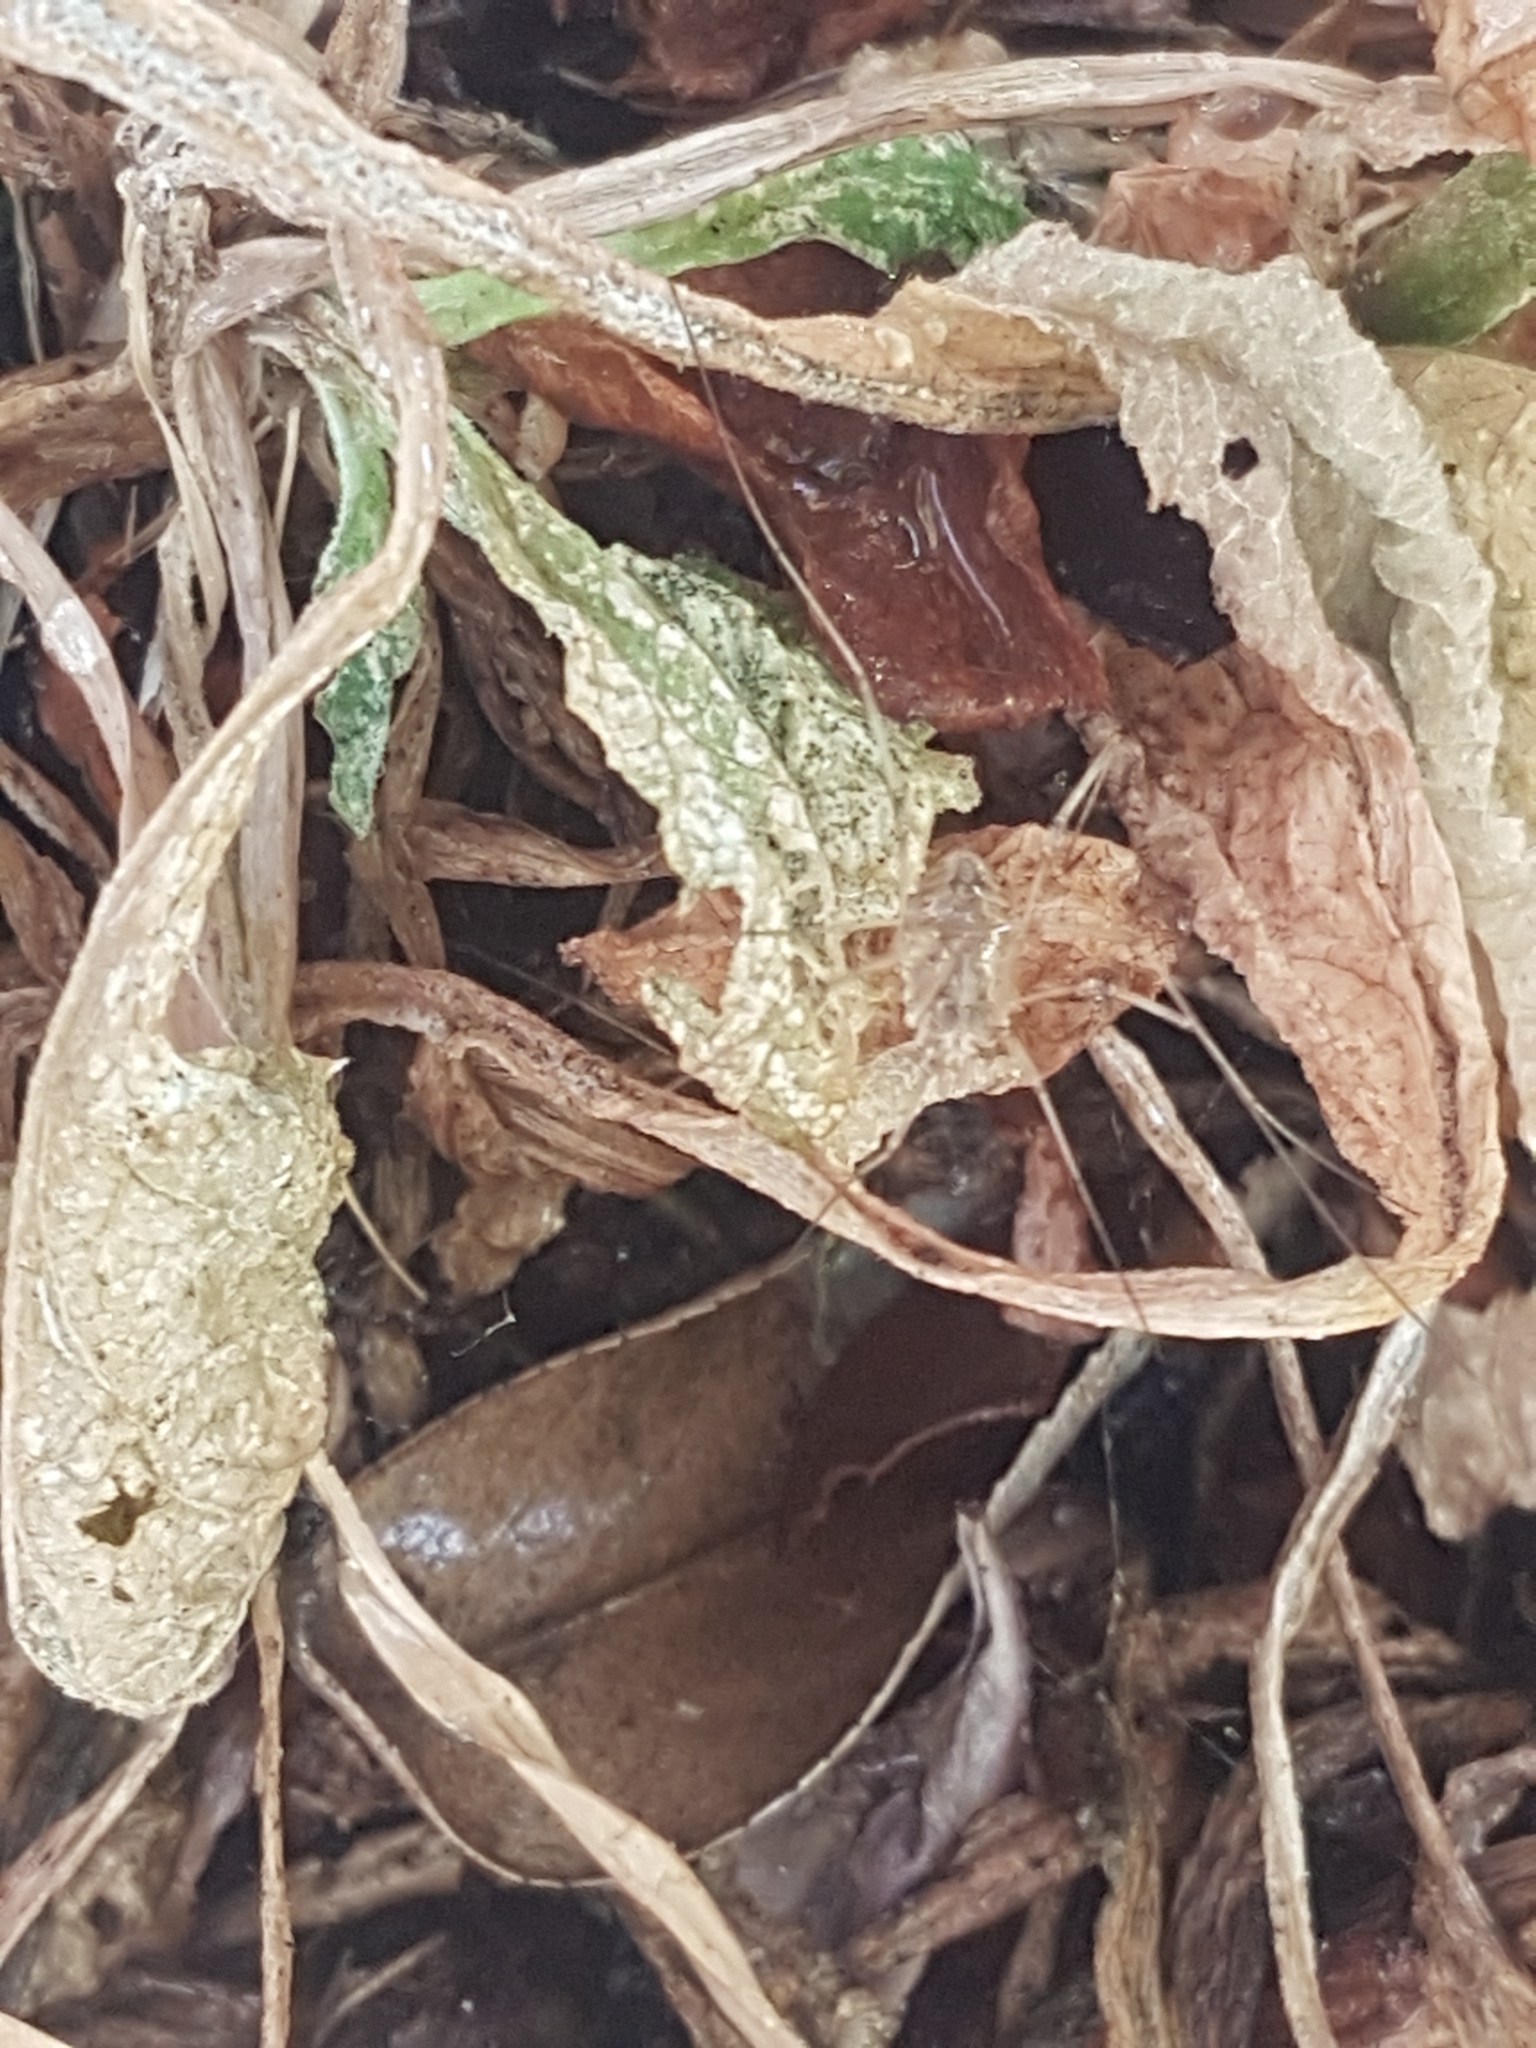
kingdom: Animalia
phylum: Arthropoda
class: Arachnida
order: Opiliones
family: Phalangiidae
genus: Phalangium
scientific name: Phalangium opilio
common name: Daddy longleg
